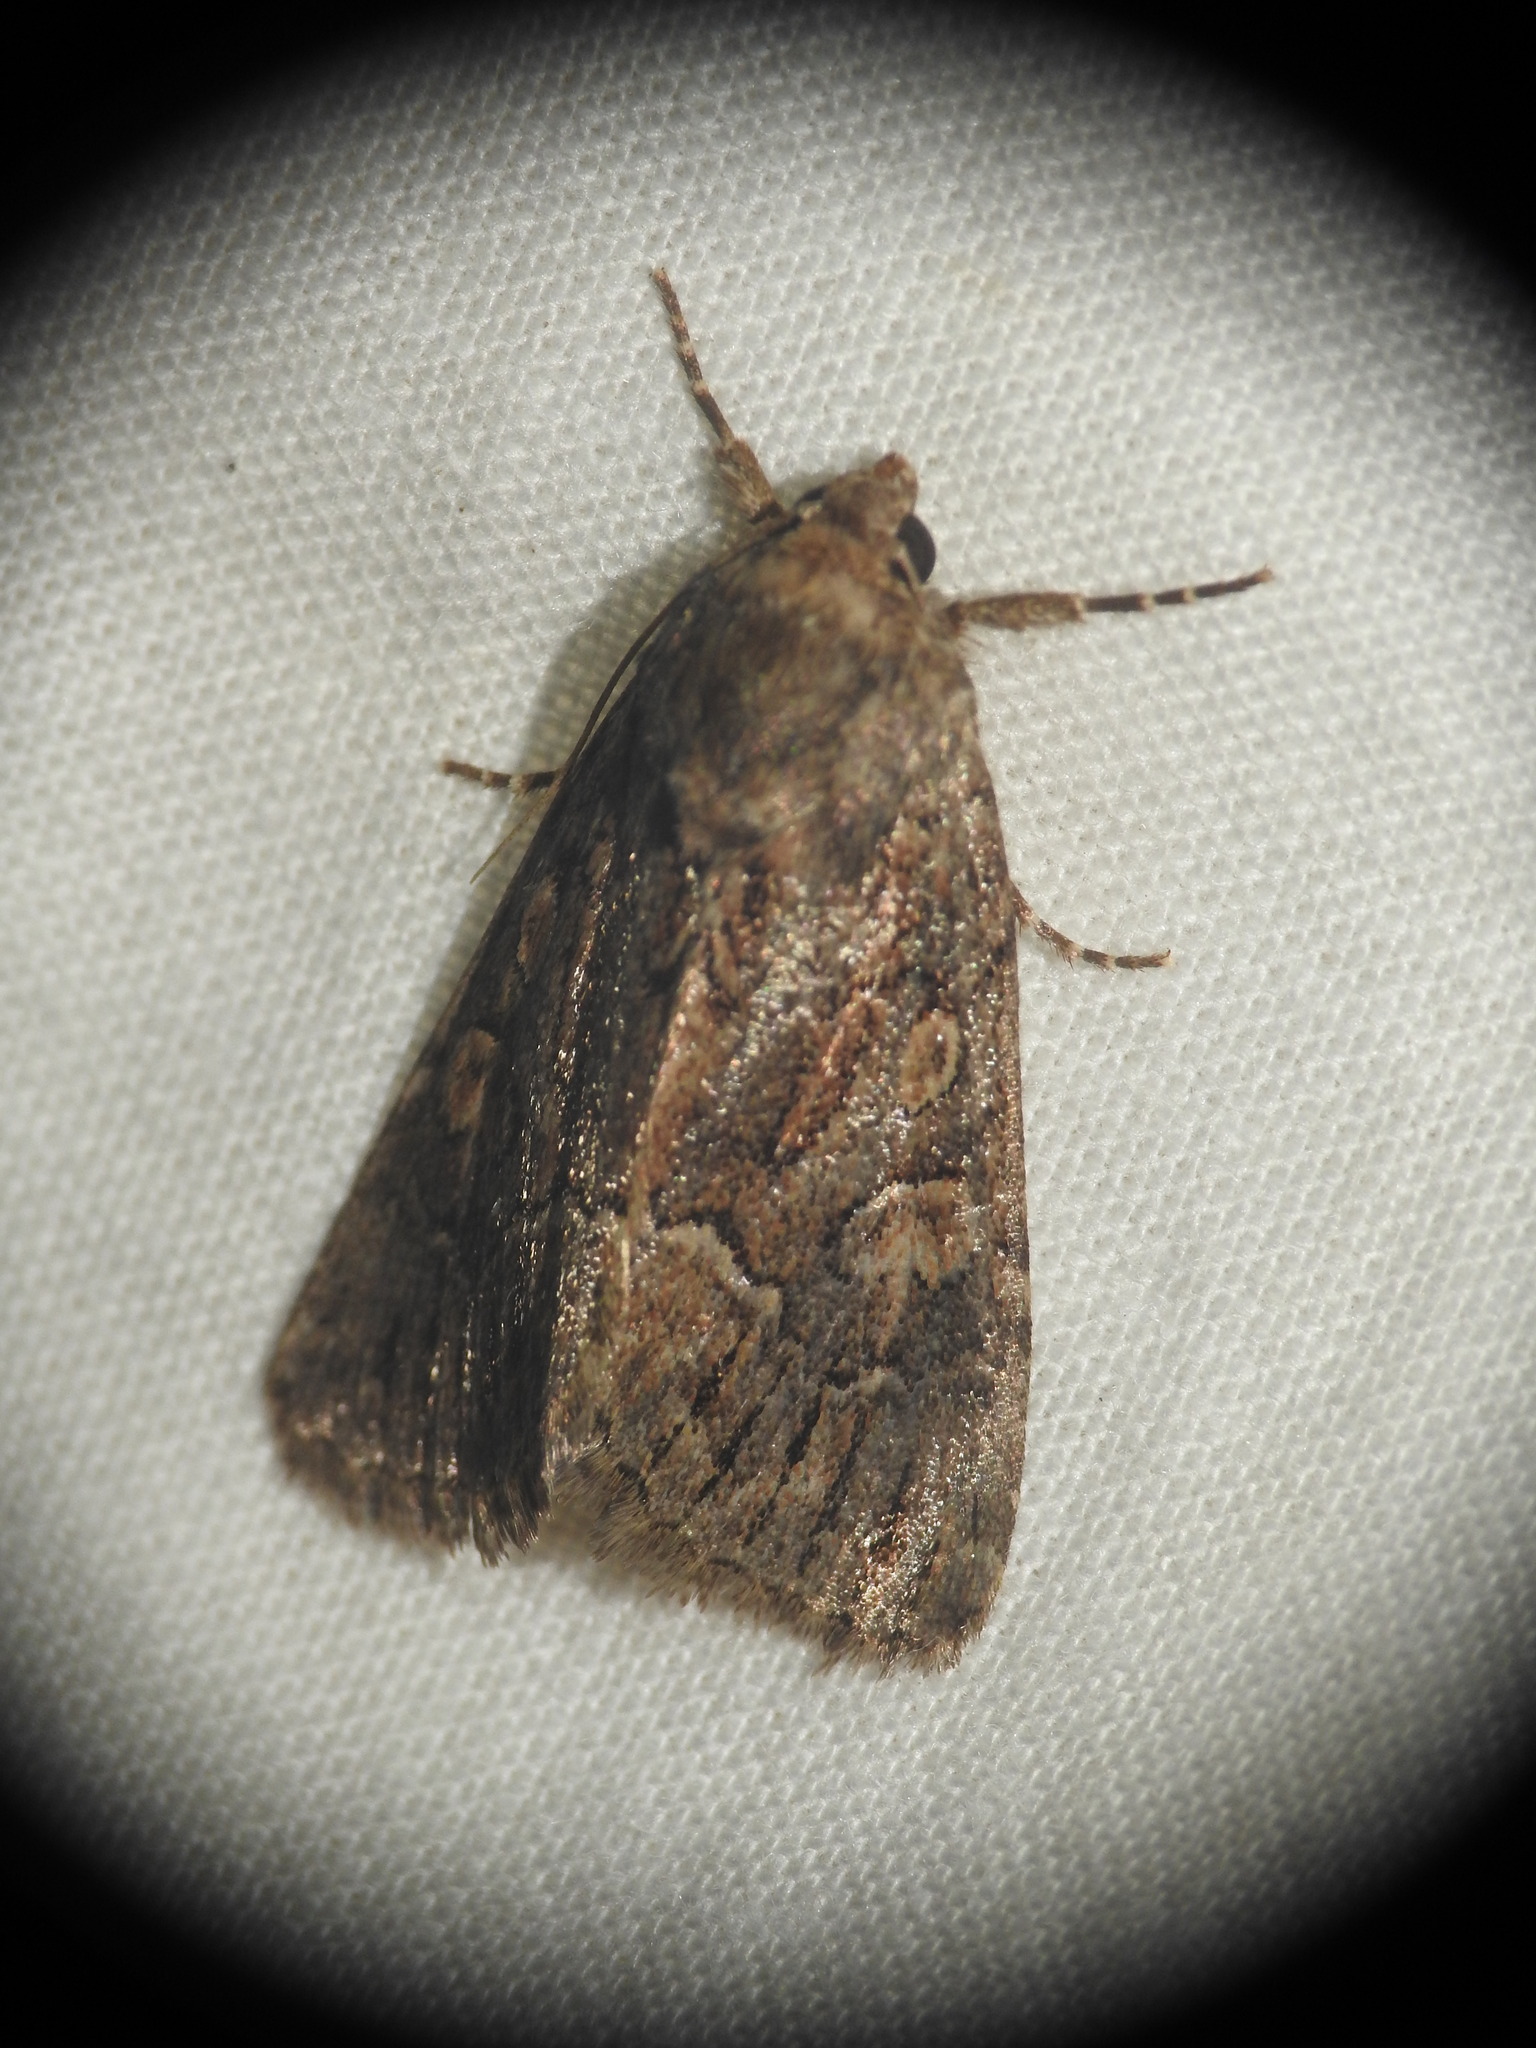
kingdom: Animalia
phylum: Arthropoda
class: Insecta
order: Lepidoptera
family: Noctuidae
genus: Thalpophila
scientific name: Thalpophila matura
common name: Straw underwing
